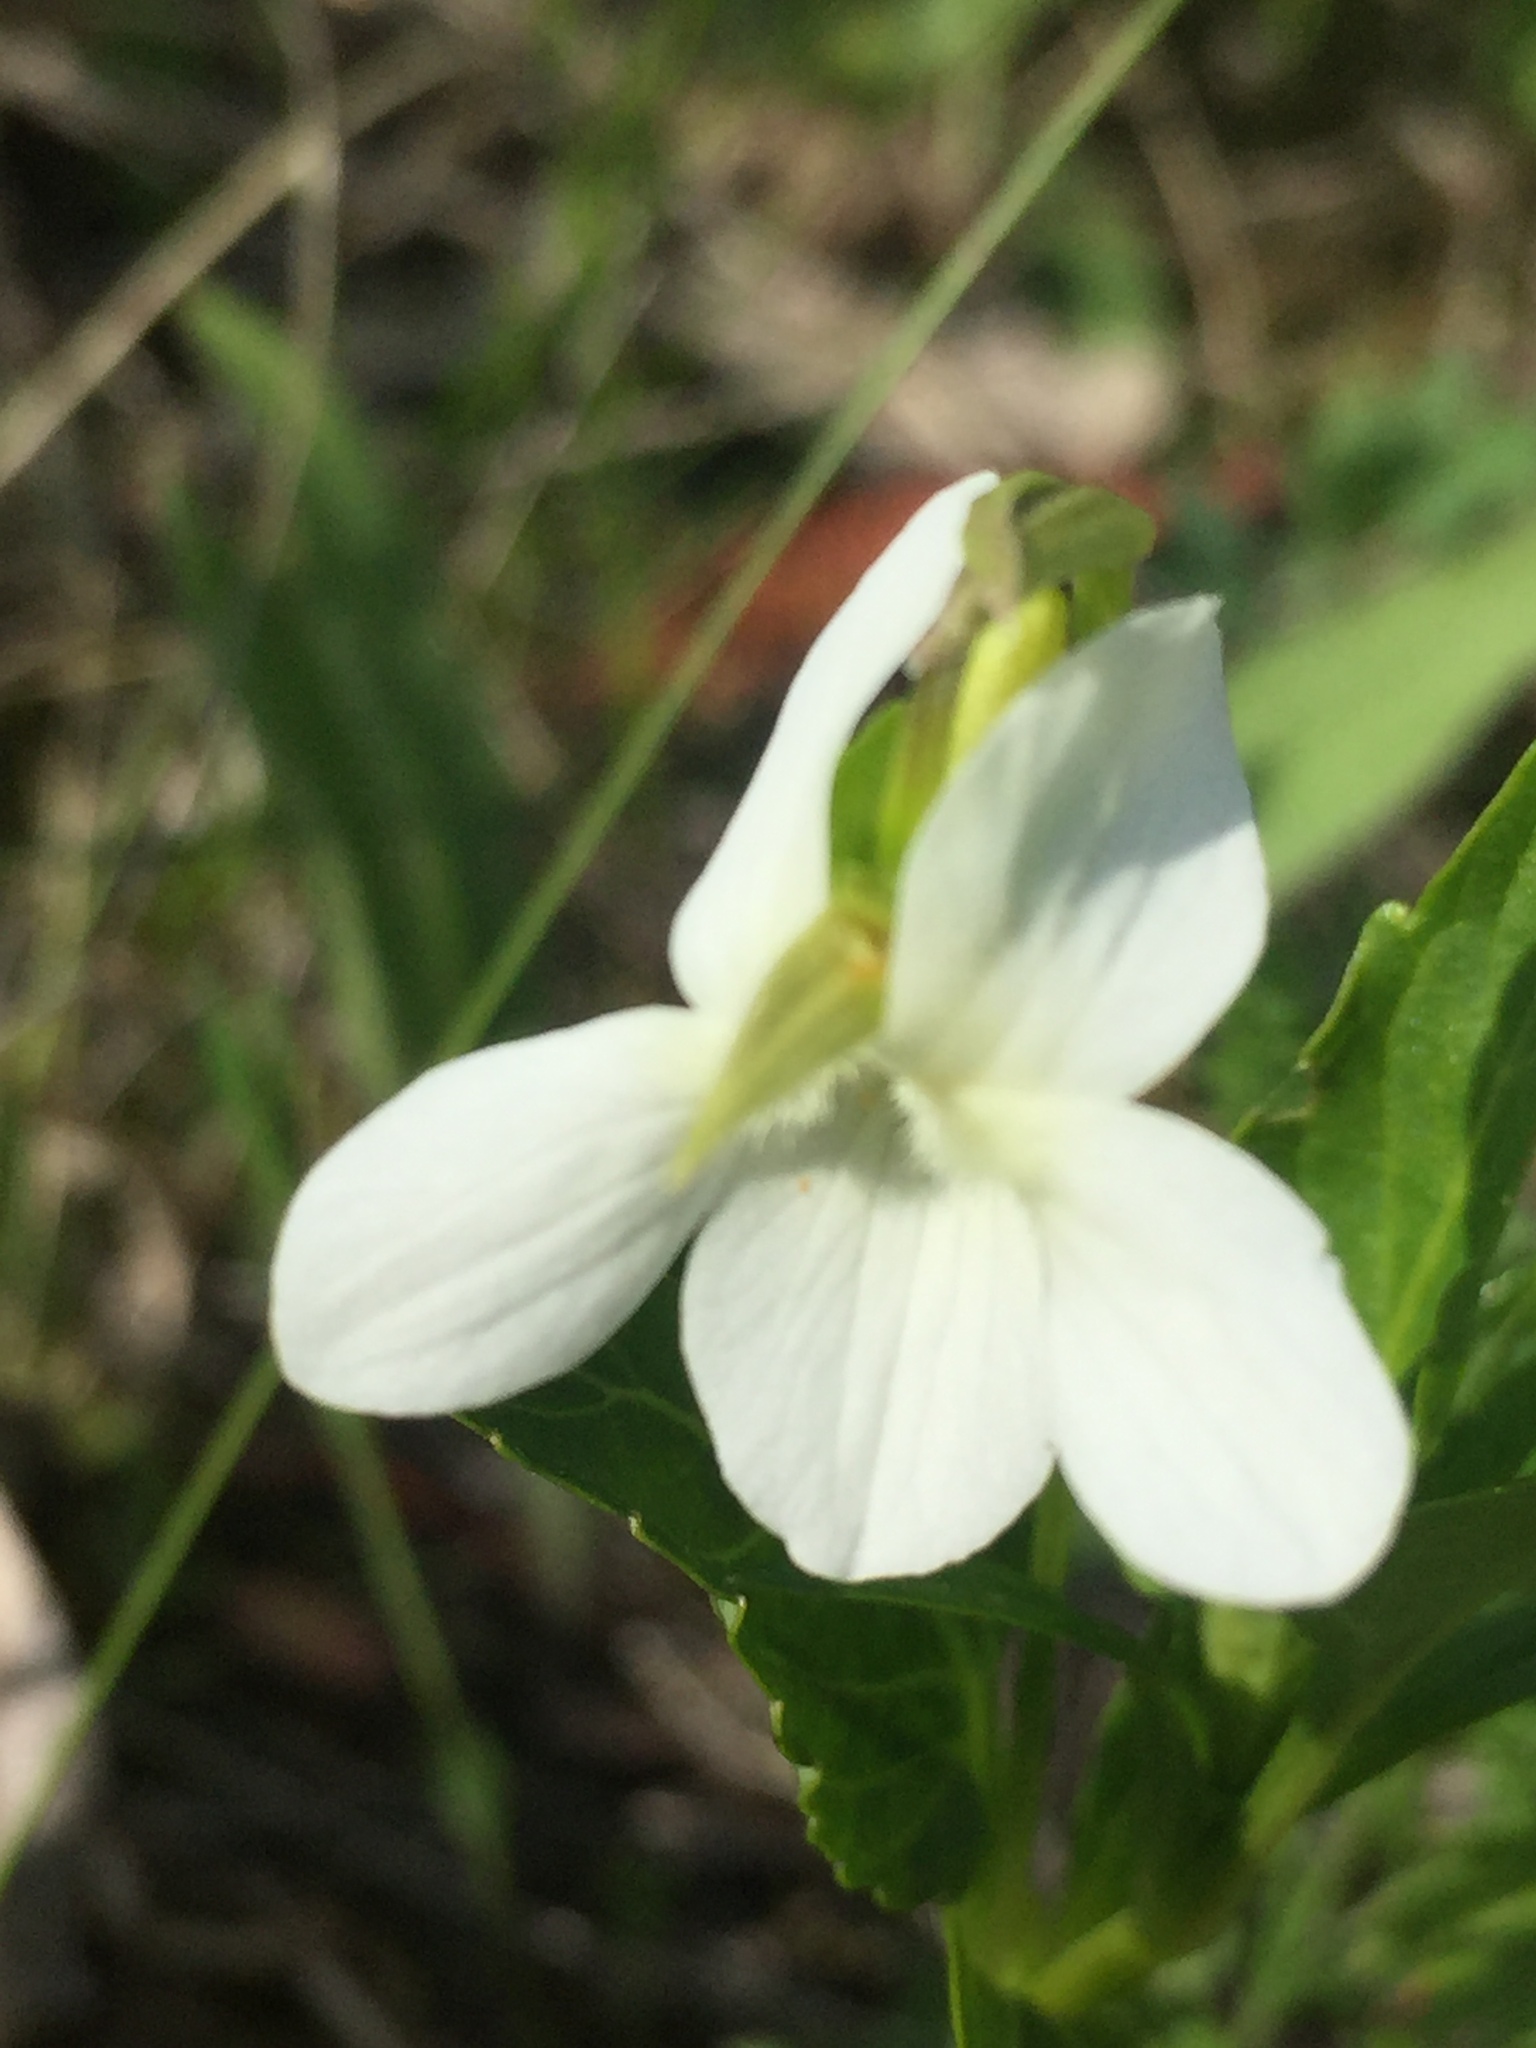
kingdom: Plantae
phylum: Tracheophyta
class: Magnoliopsida
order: Malpighiales
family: Violaceae
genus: Viola
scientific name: Viola pumila
